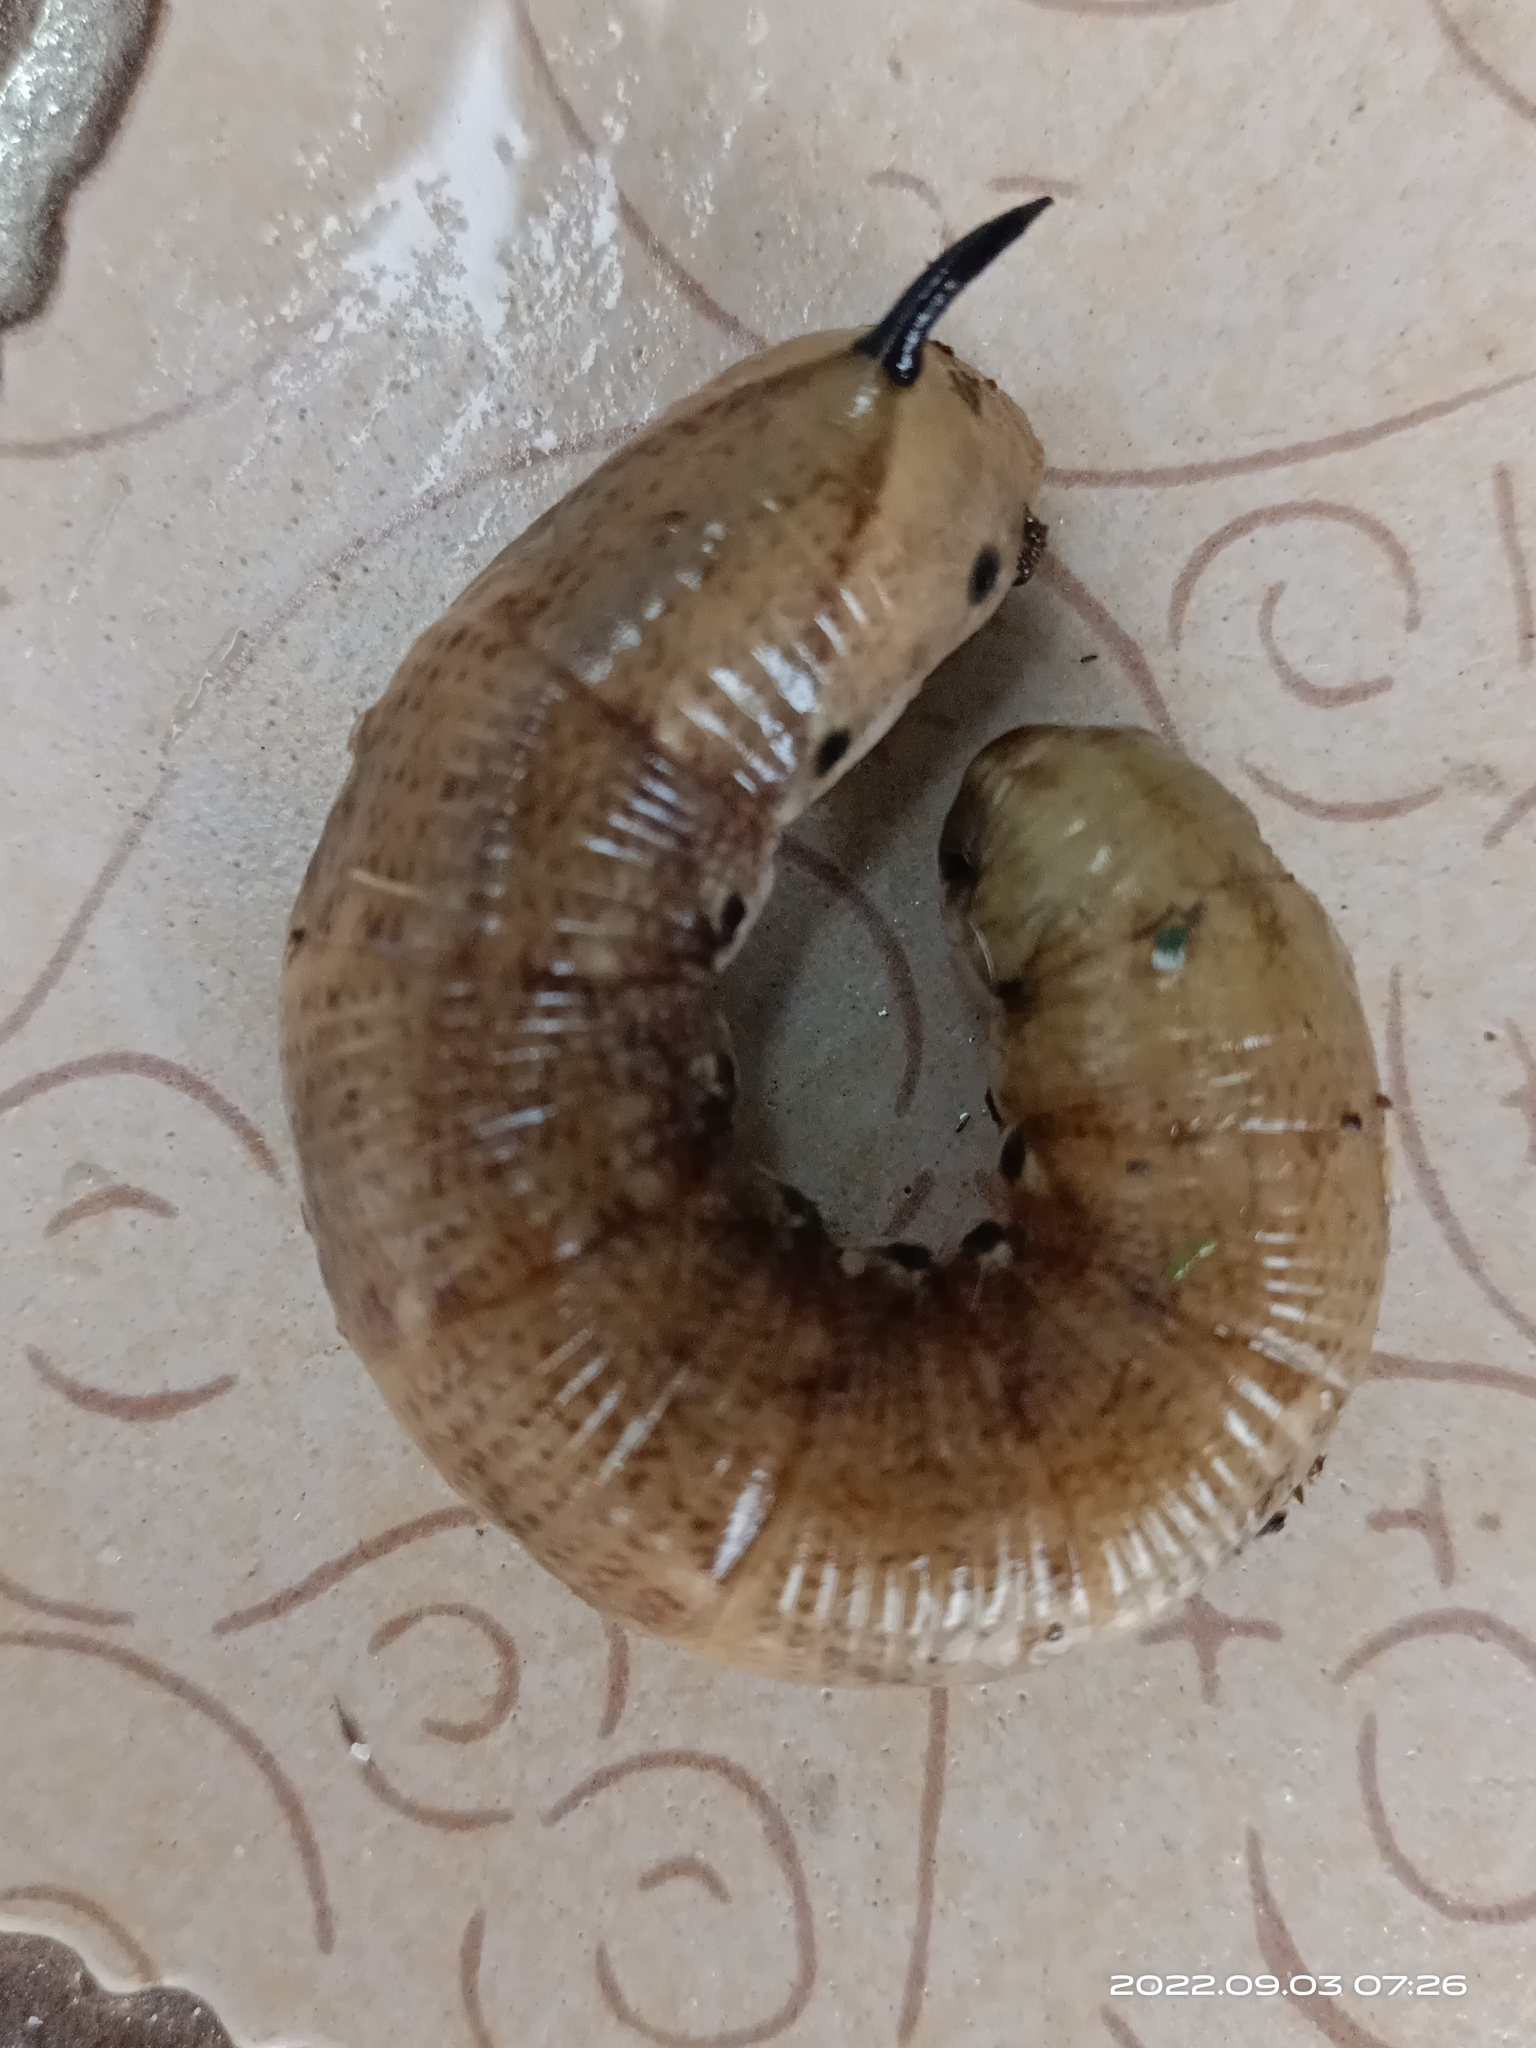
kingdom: Animalia
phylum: Arthropoda
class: Insecta
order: Lepidoptera
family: Sphingidae
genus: Agrius
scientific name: Agrius convolvuli
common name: Convolvulus hawkmoth
